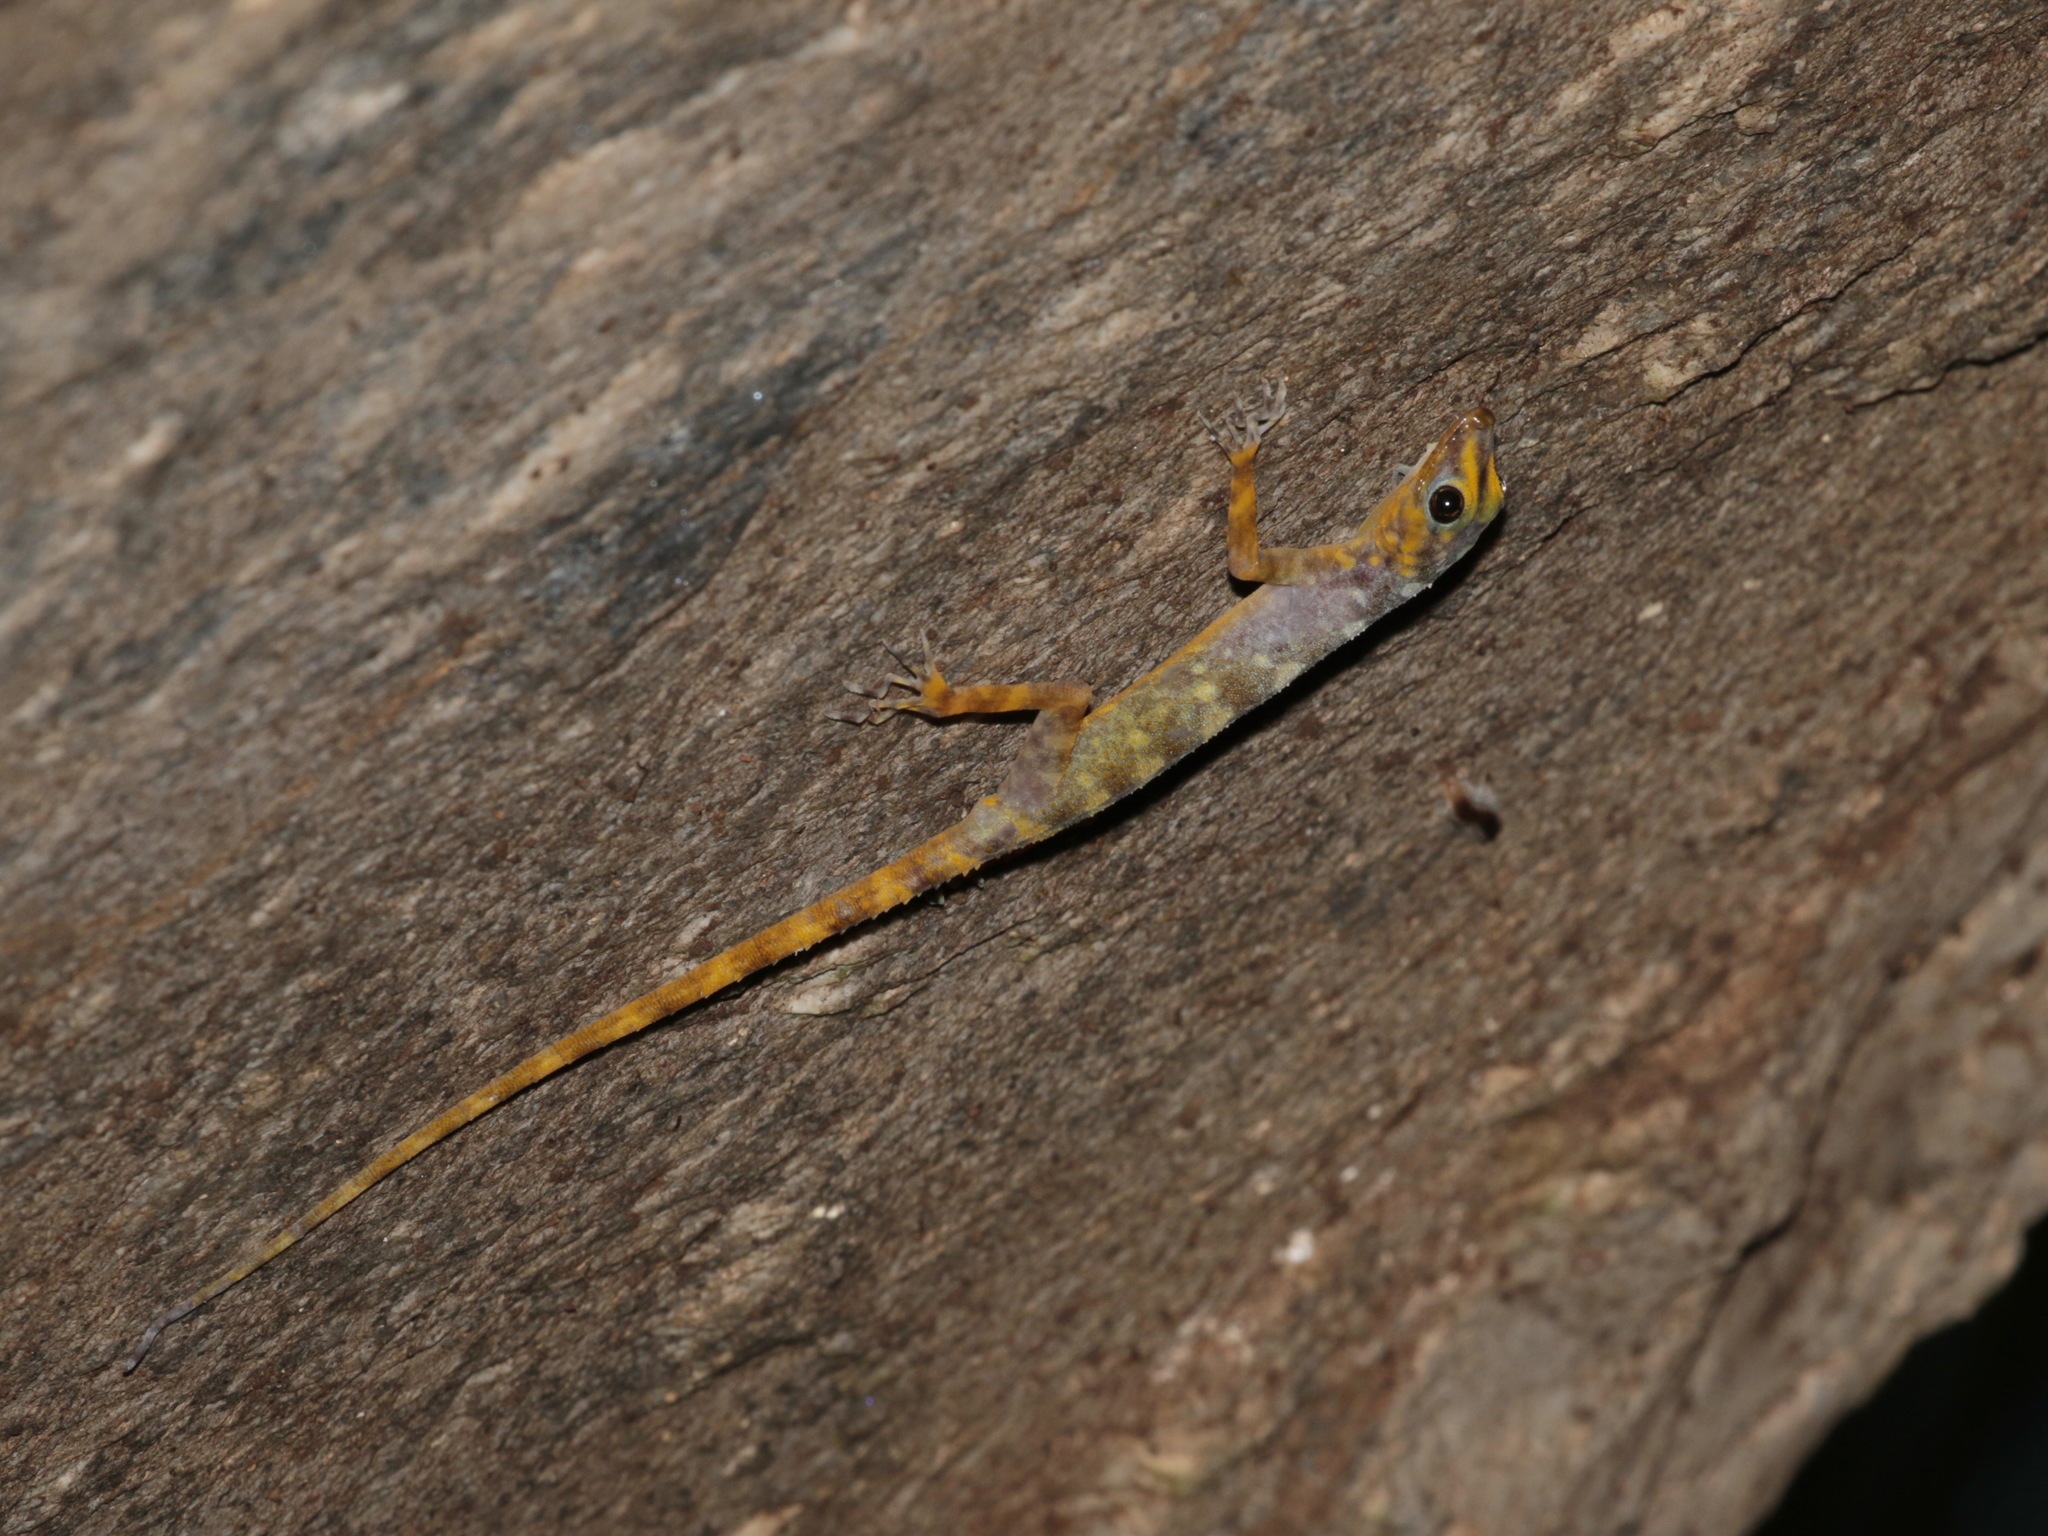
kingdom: Animalia
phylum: Chordata
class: Squamata
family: Gekkonidae
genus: Cnemaspis
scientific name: Cnemaspis niyomwanae
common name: Niyomwan’s rock gecko
